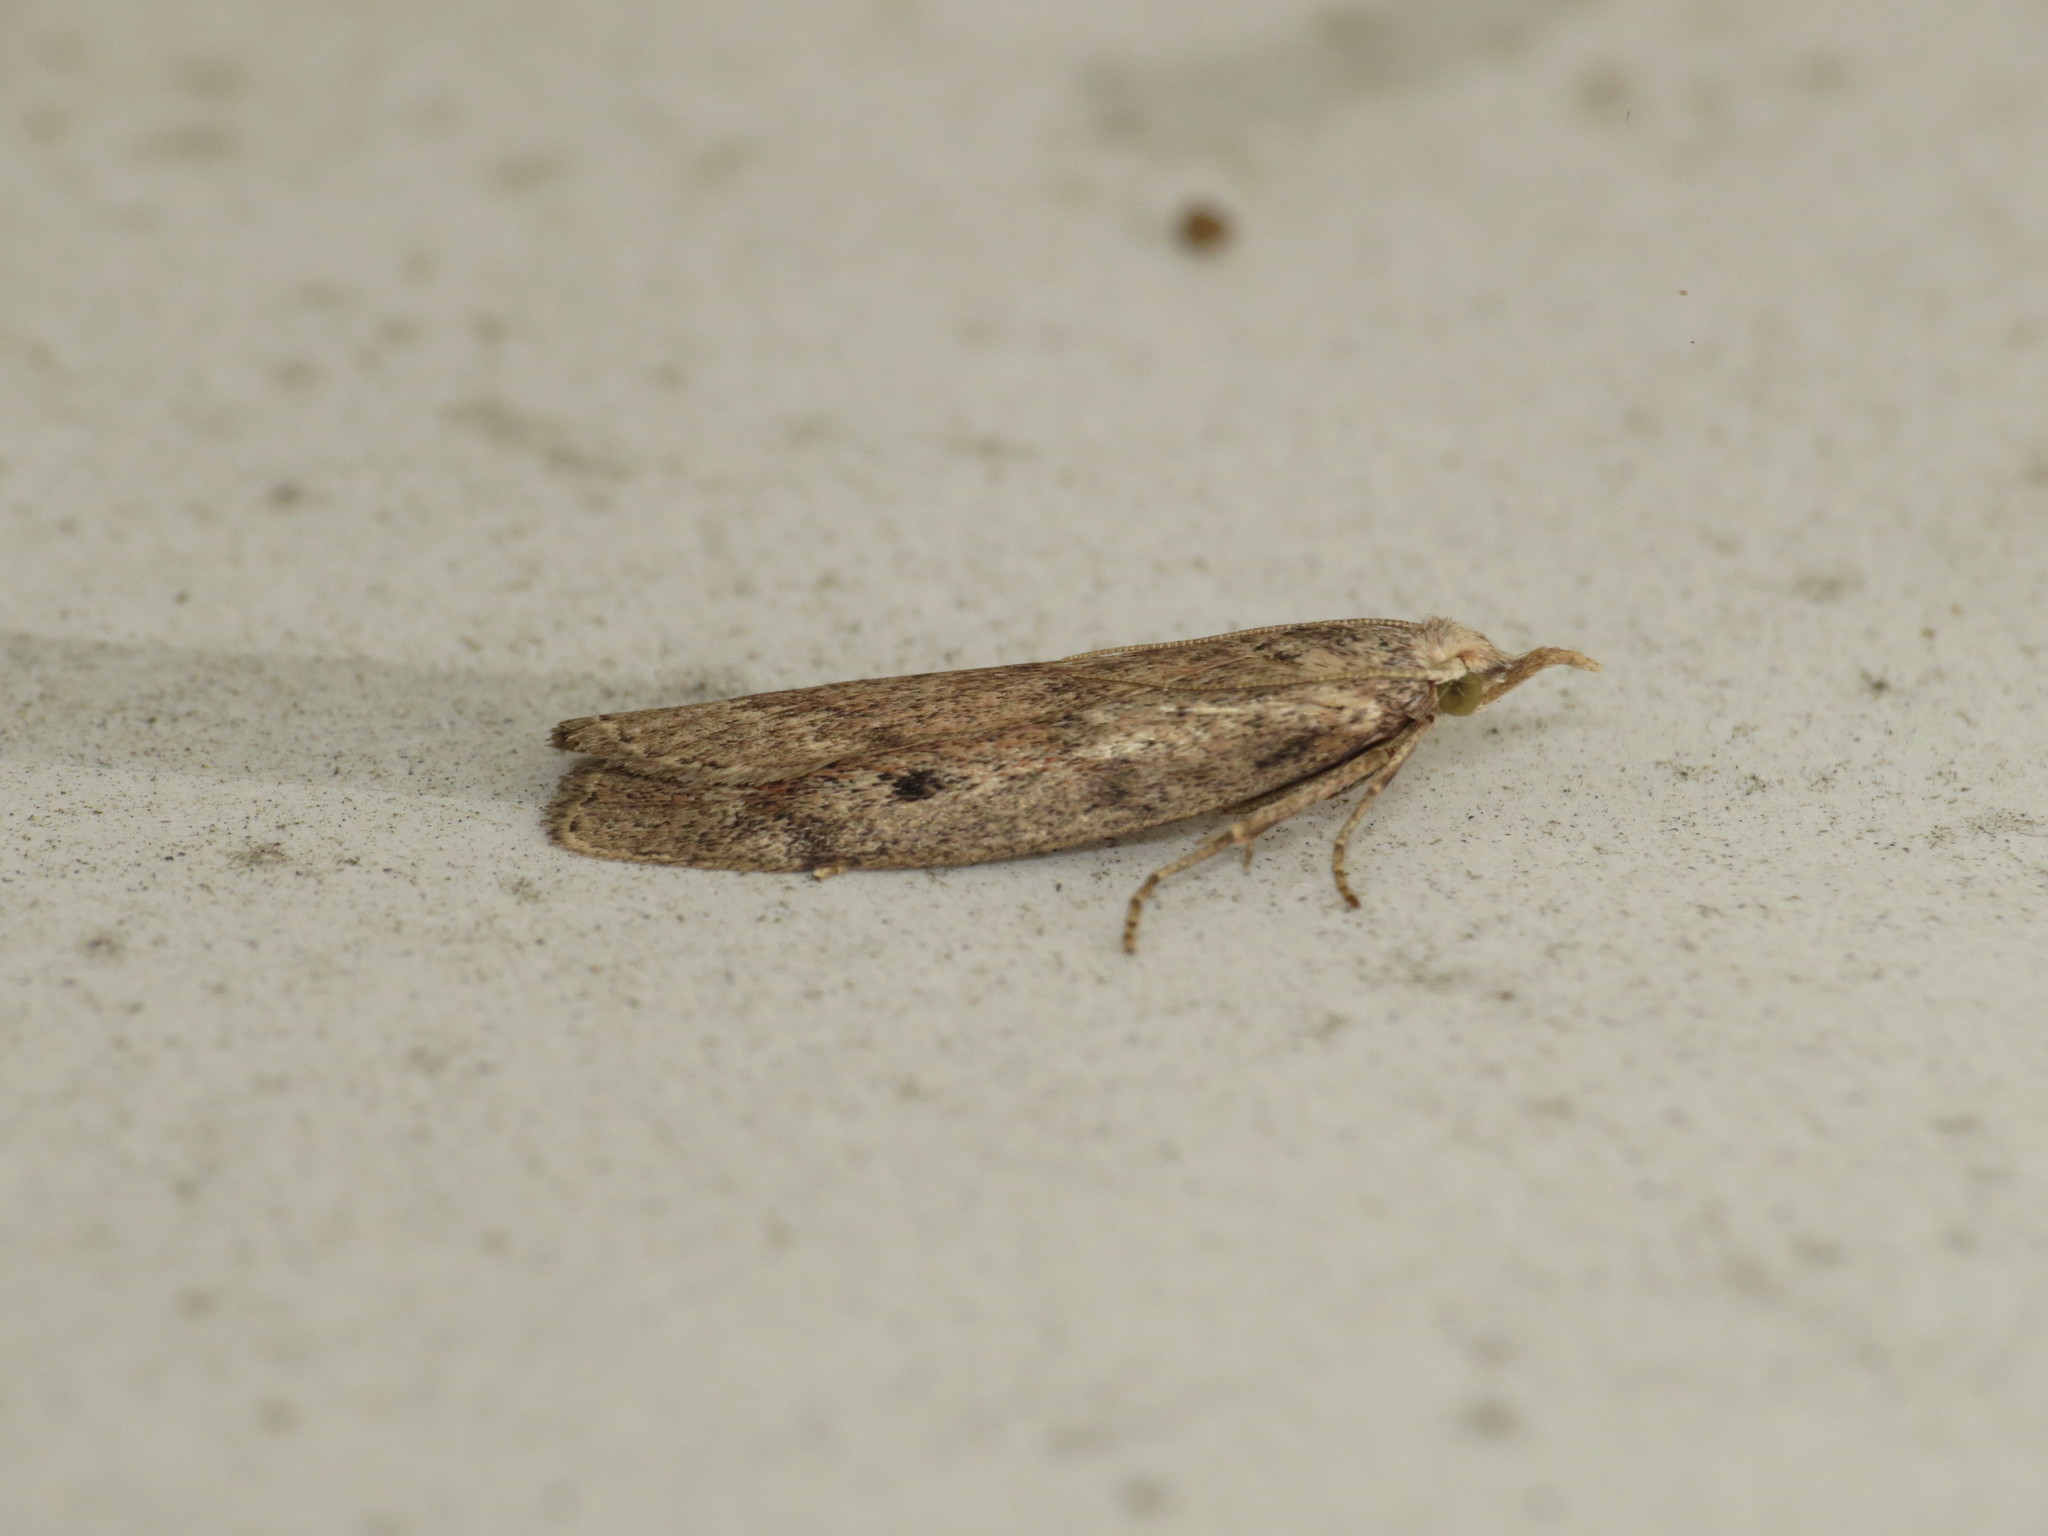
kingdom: Animalia
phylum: Arthropoda
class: Insecta
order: Lepidoptera
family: Pyralidae
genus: Aphomia
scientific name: Aphomia sociella
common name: Bee moth
